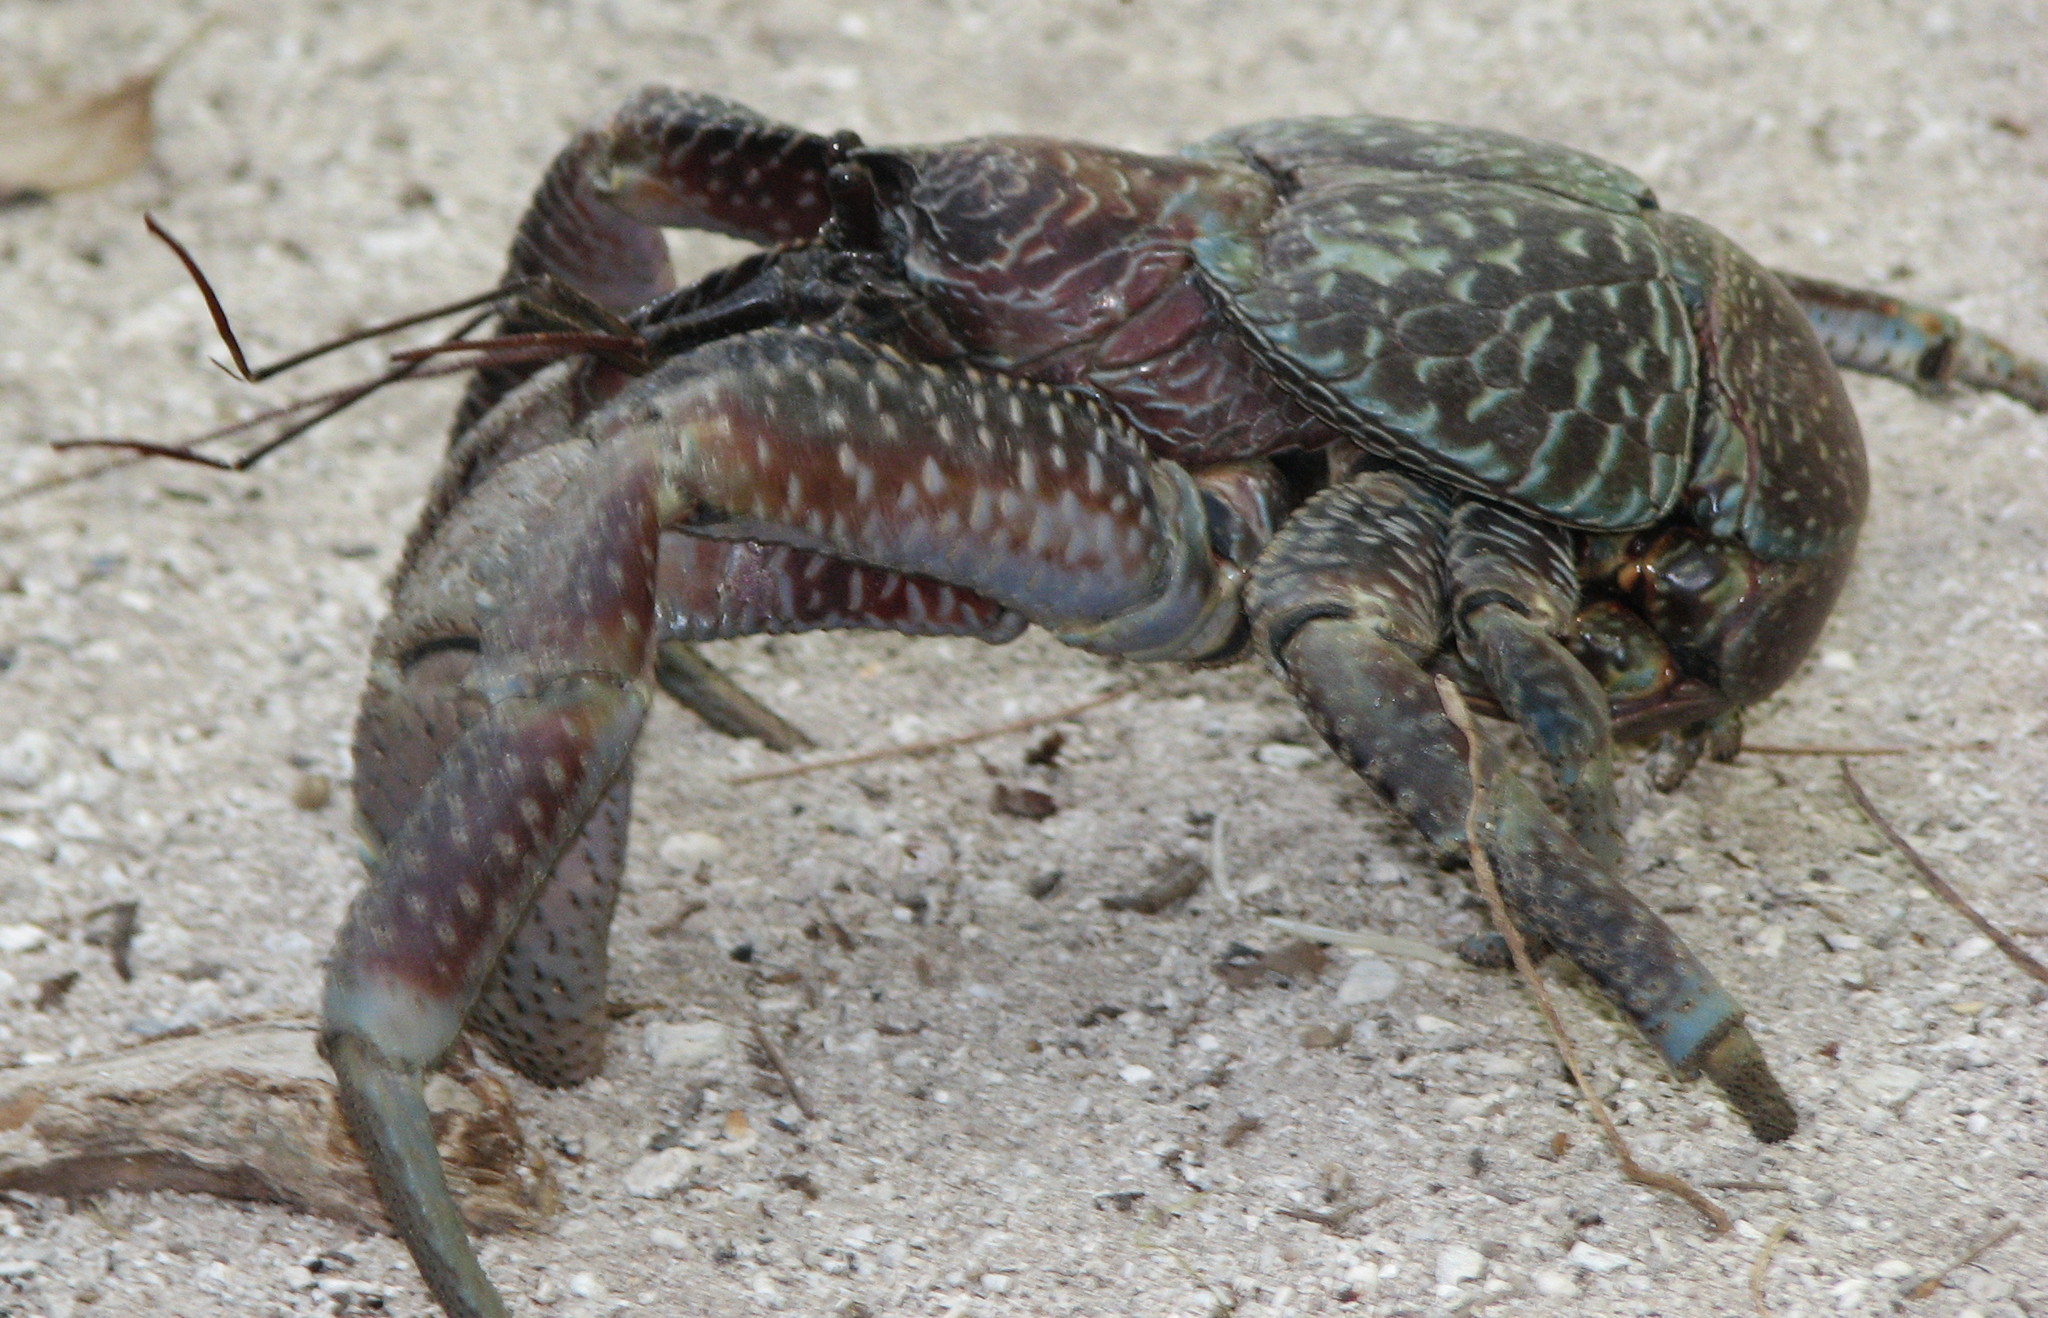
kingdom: Animalia
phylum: Arthropoda
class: Malacostraca
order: Decapoda
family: Coenobitidae
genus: Birgus
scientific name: Birgus latro
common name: Coconut crab
